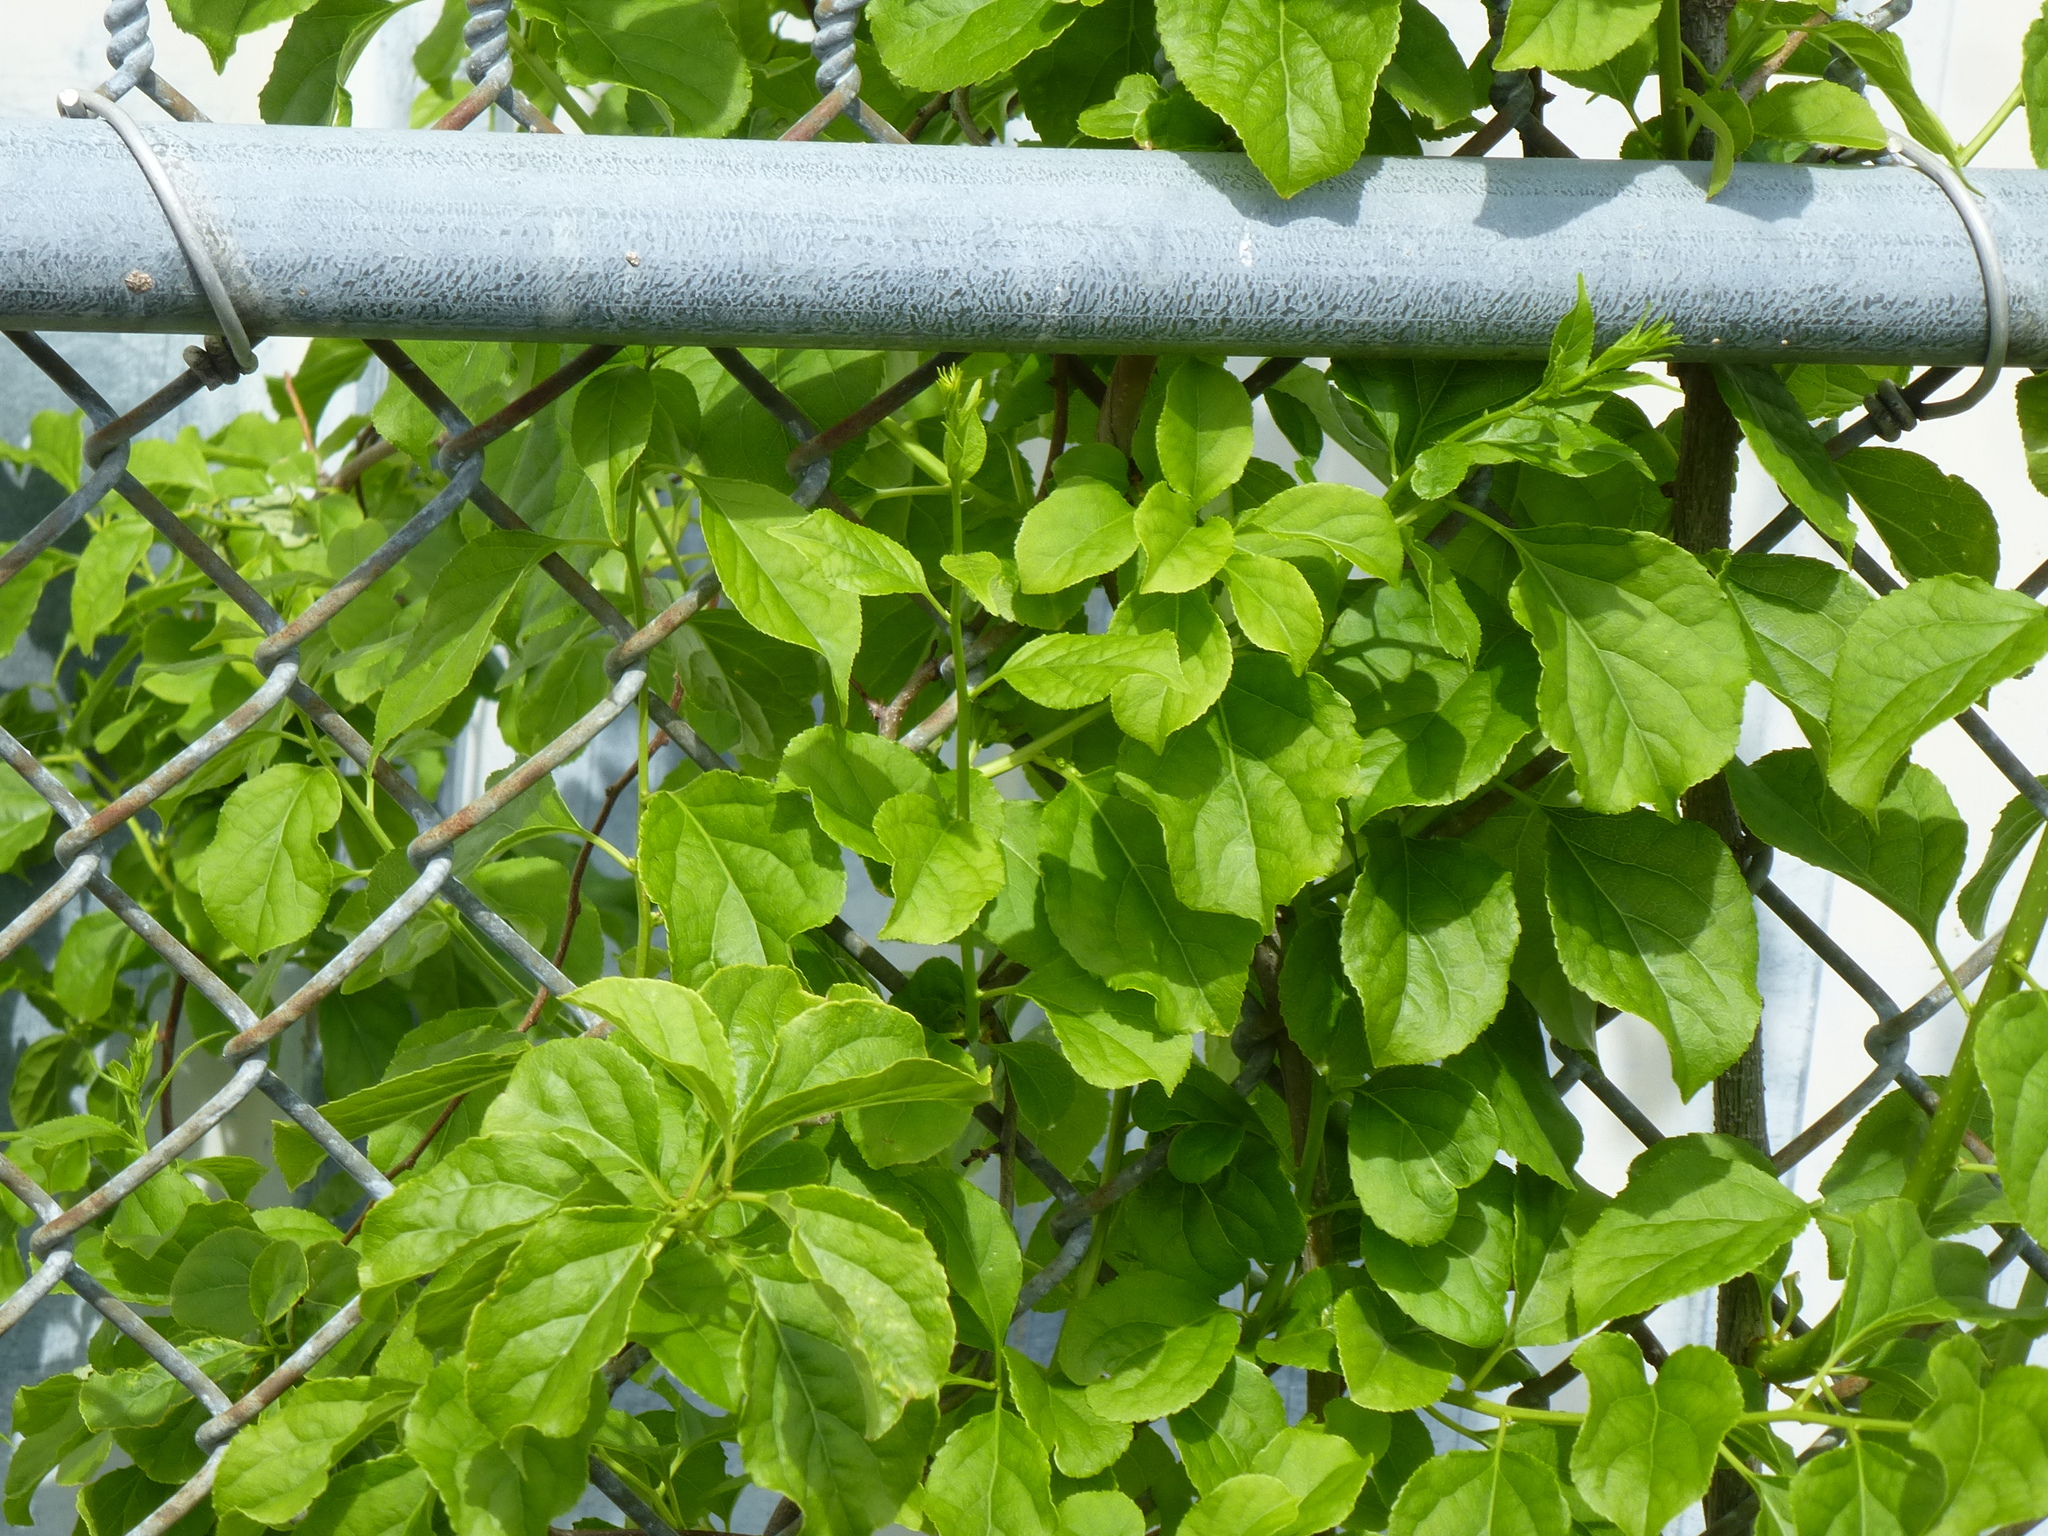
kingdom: Plantae
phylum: Tracheophyta
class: Magnoliopsida
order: Celastrales
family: Celastraceae
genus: Celastrus
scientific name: Celastrus orbiculatus
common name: Oriental bittersweet
